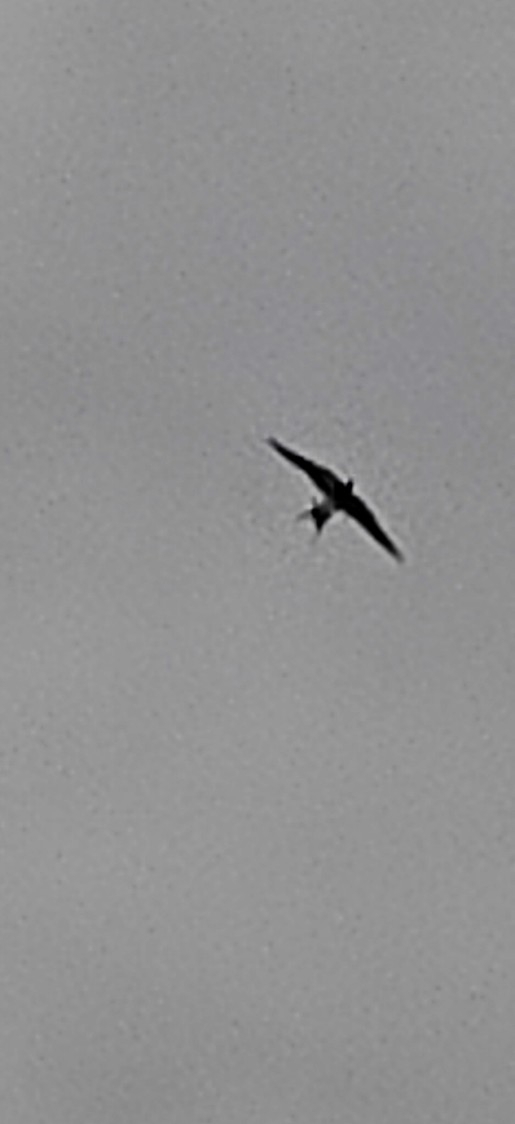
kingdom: Animalia
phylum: Chordata
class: Aves
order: Passeriformes
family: Hirundinidae
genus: Delichon
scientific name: Delichon urbicum
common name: Common house martin
